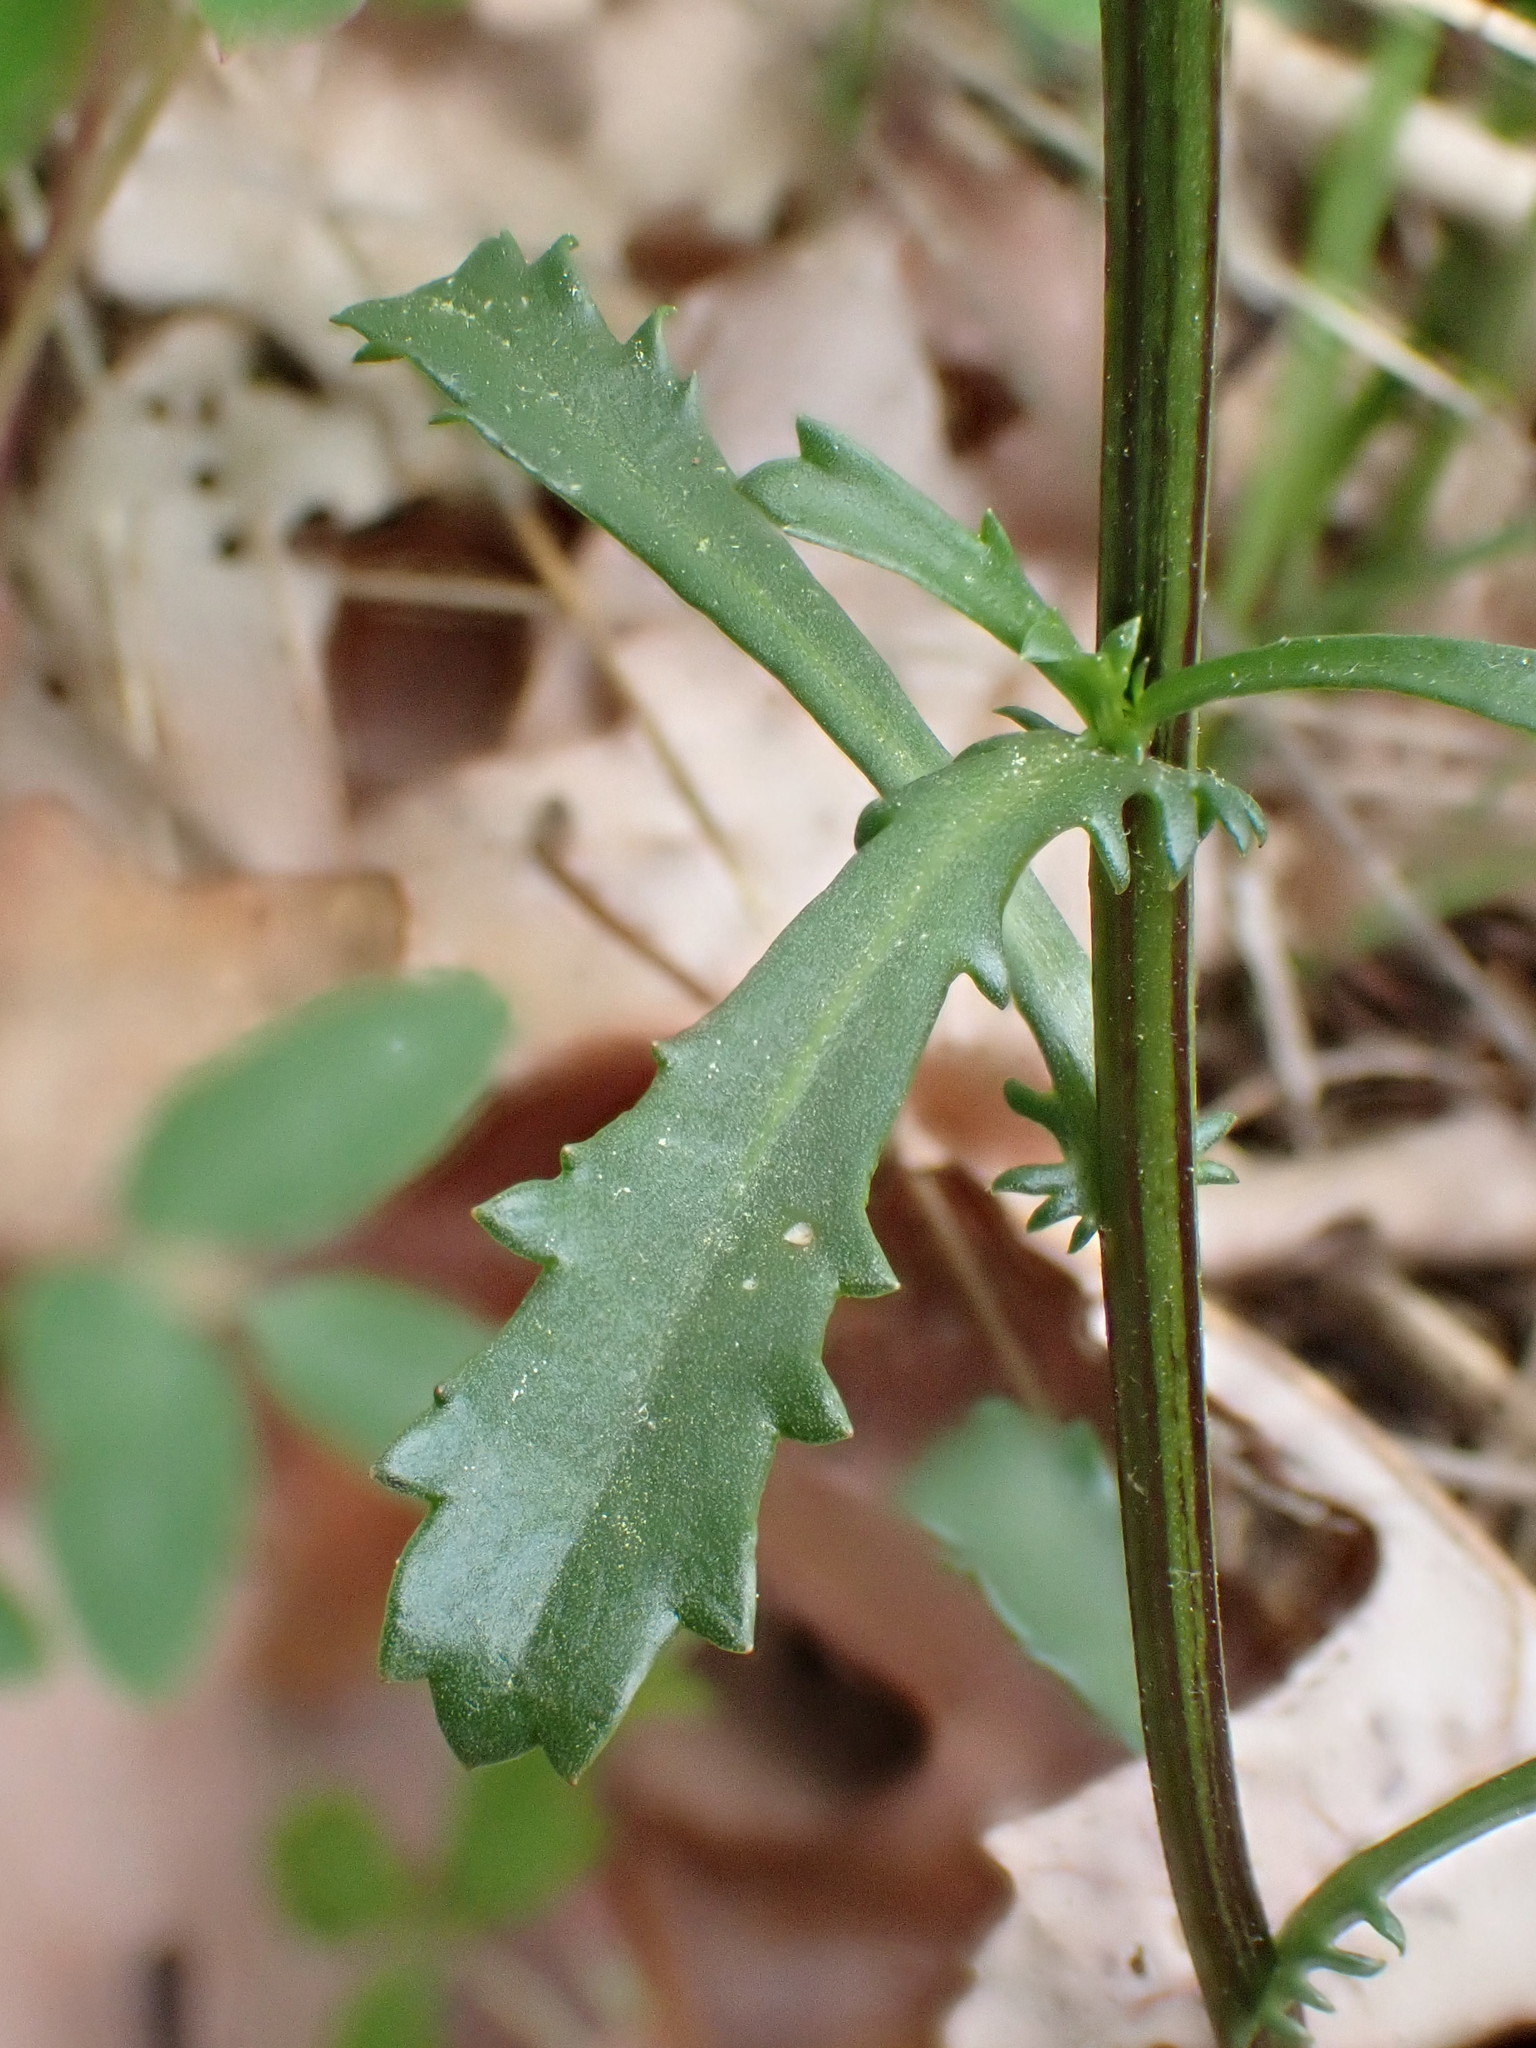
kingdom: Plantae
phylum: Tracheophyta
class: Magnoliopsida
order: Asterales
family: Asteraceae
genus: Leucanthemum
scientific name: Leucanthemum vulgare
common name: Oxeye daisy
